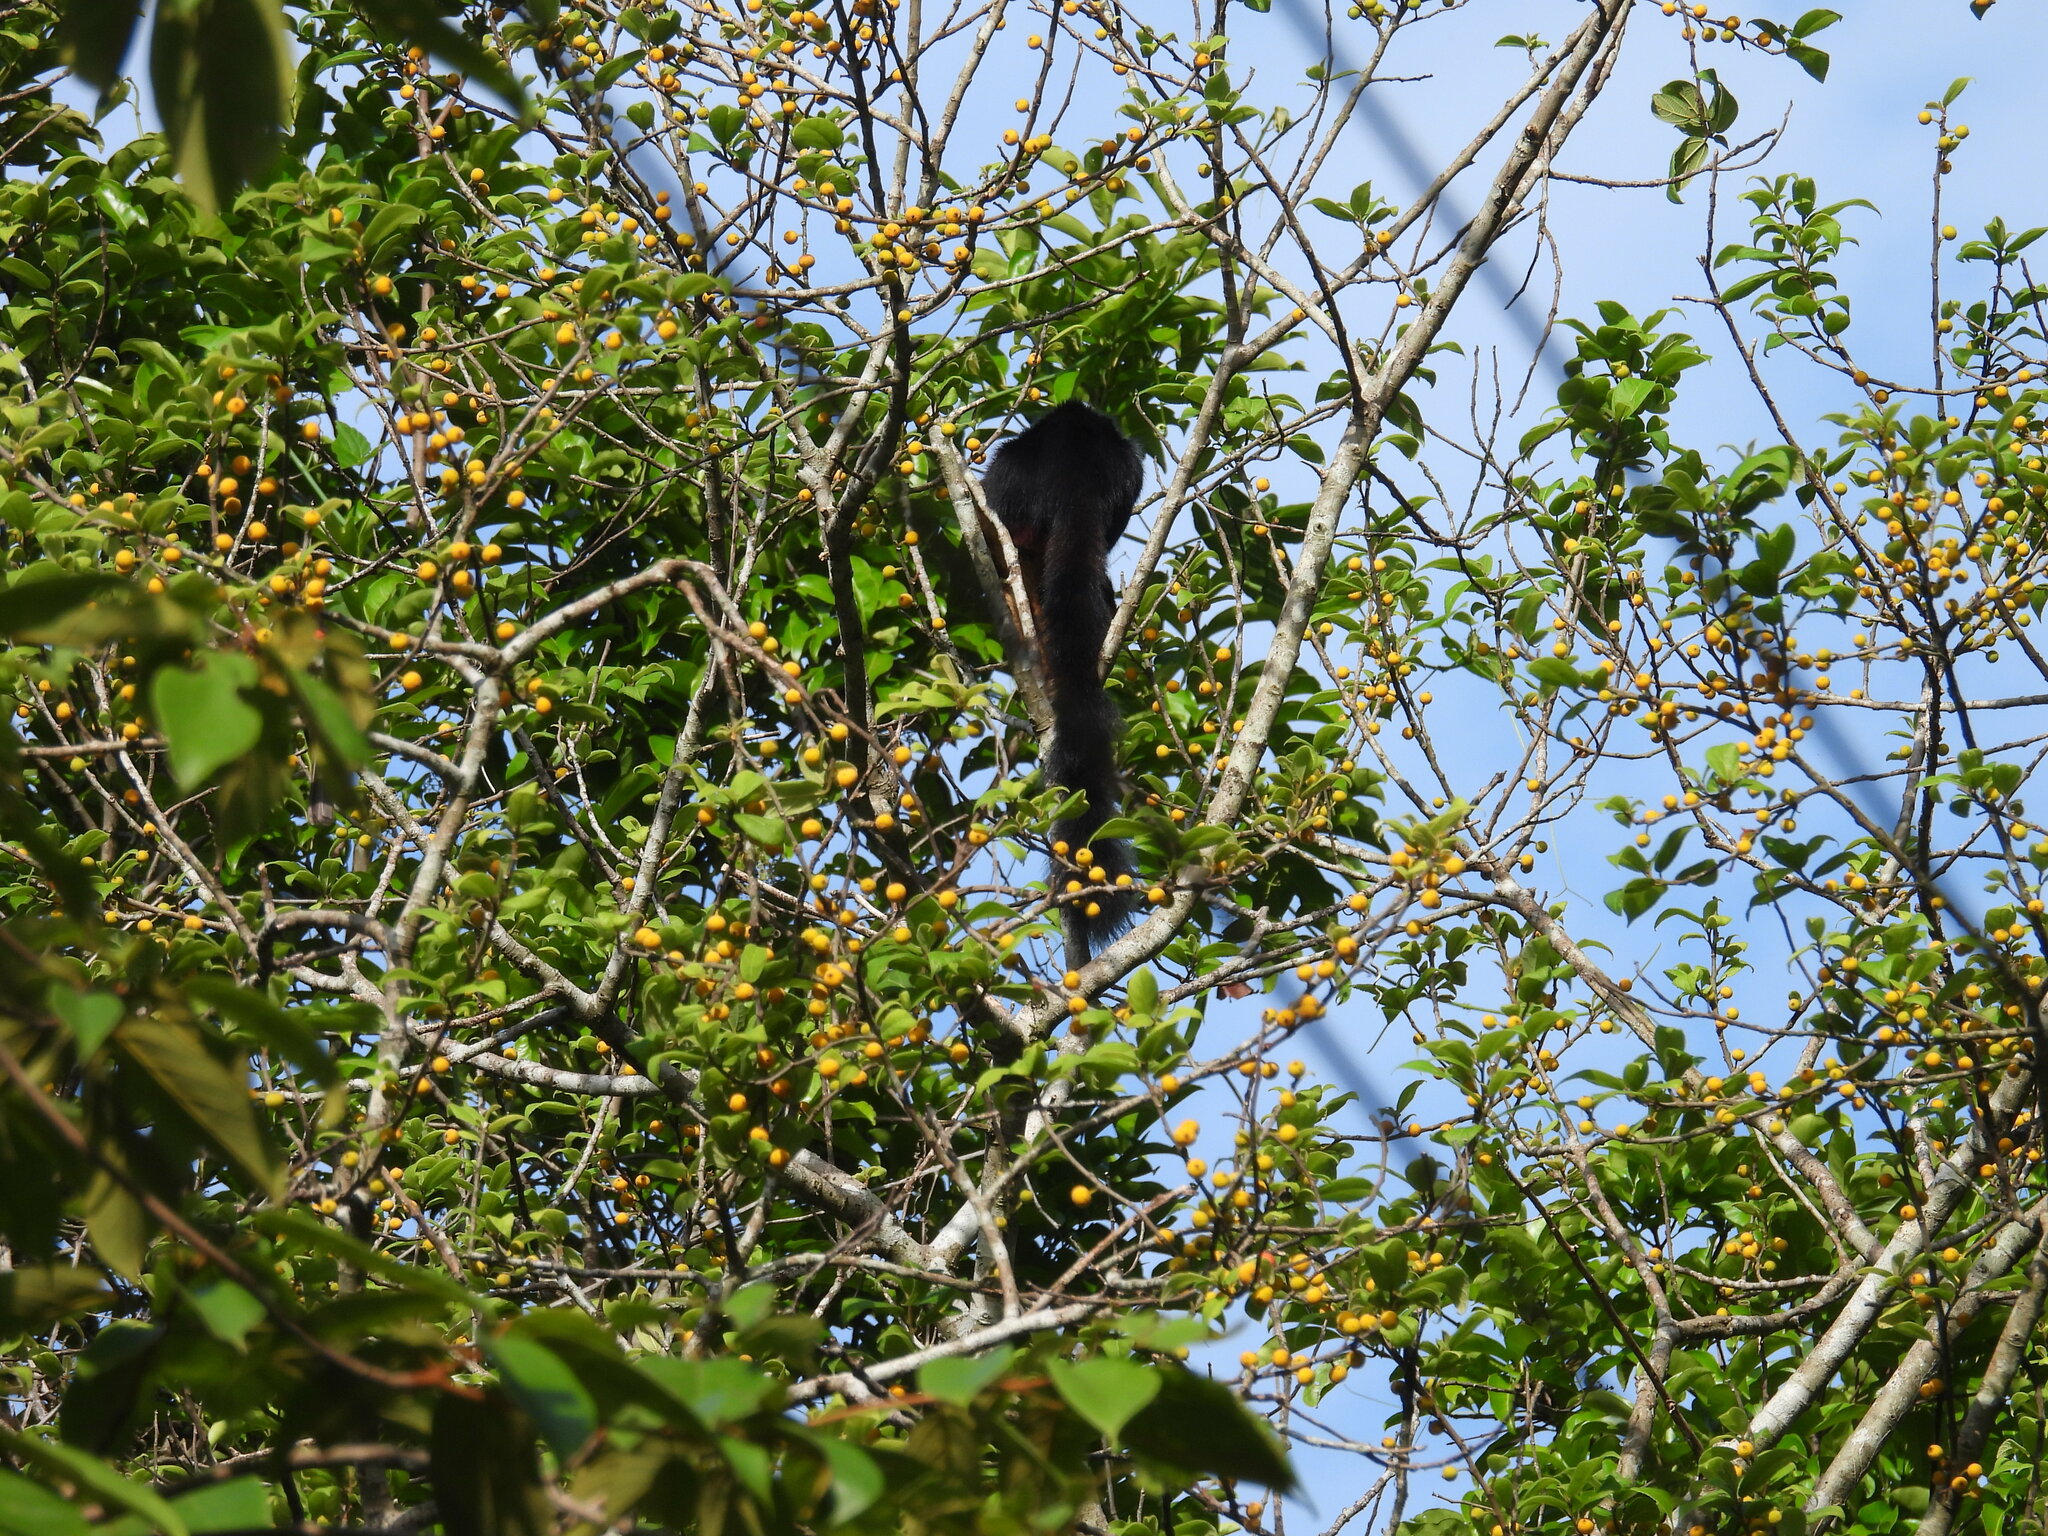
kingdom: Animalia
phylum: Chordata
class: Mammalia
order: Rodentia
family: Sciuridae
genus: Ratufa
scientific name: Ratufa indica
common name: Indian giant squirrel
